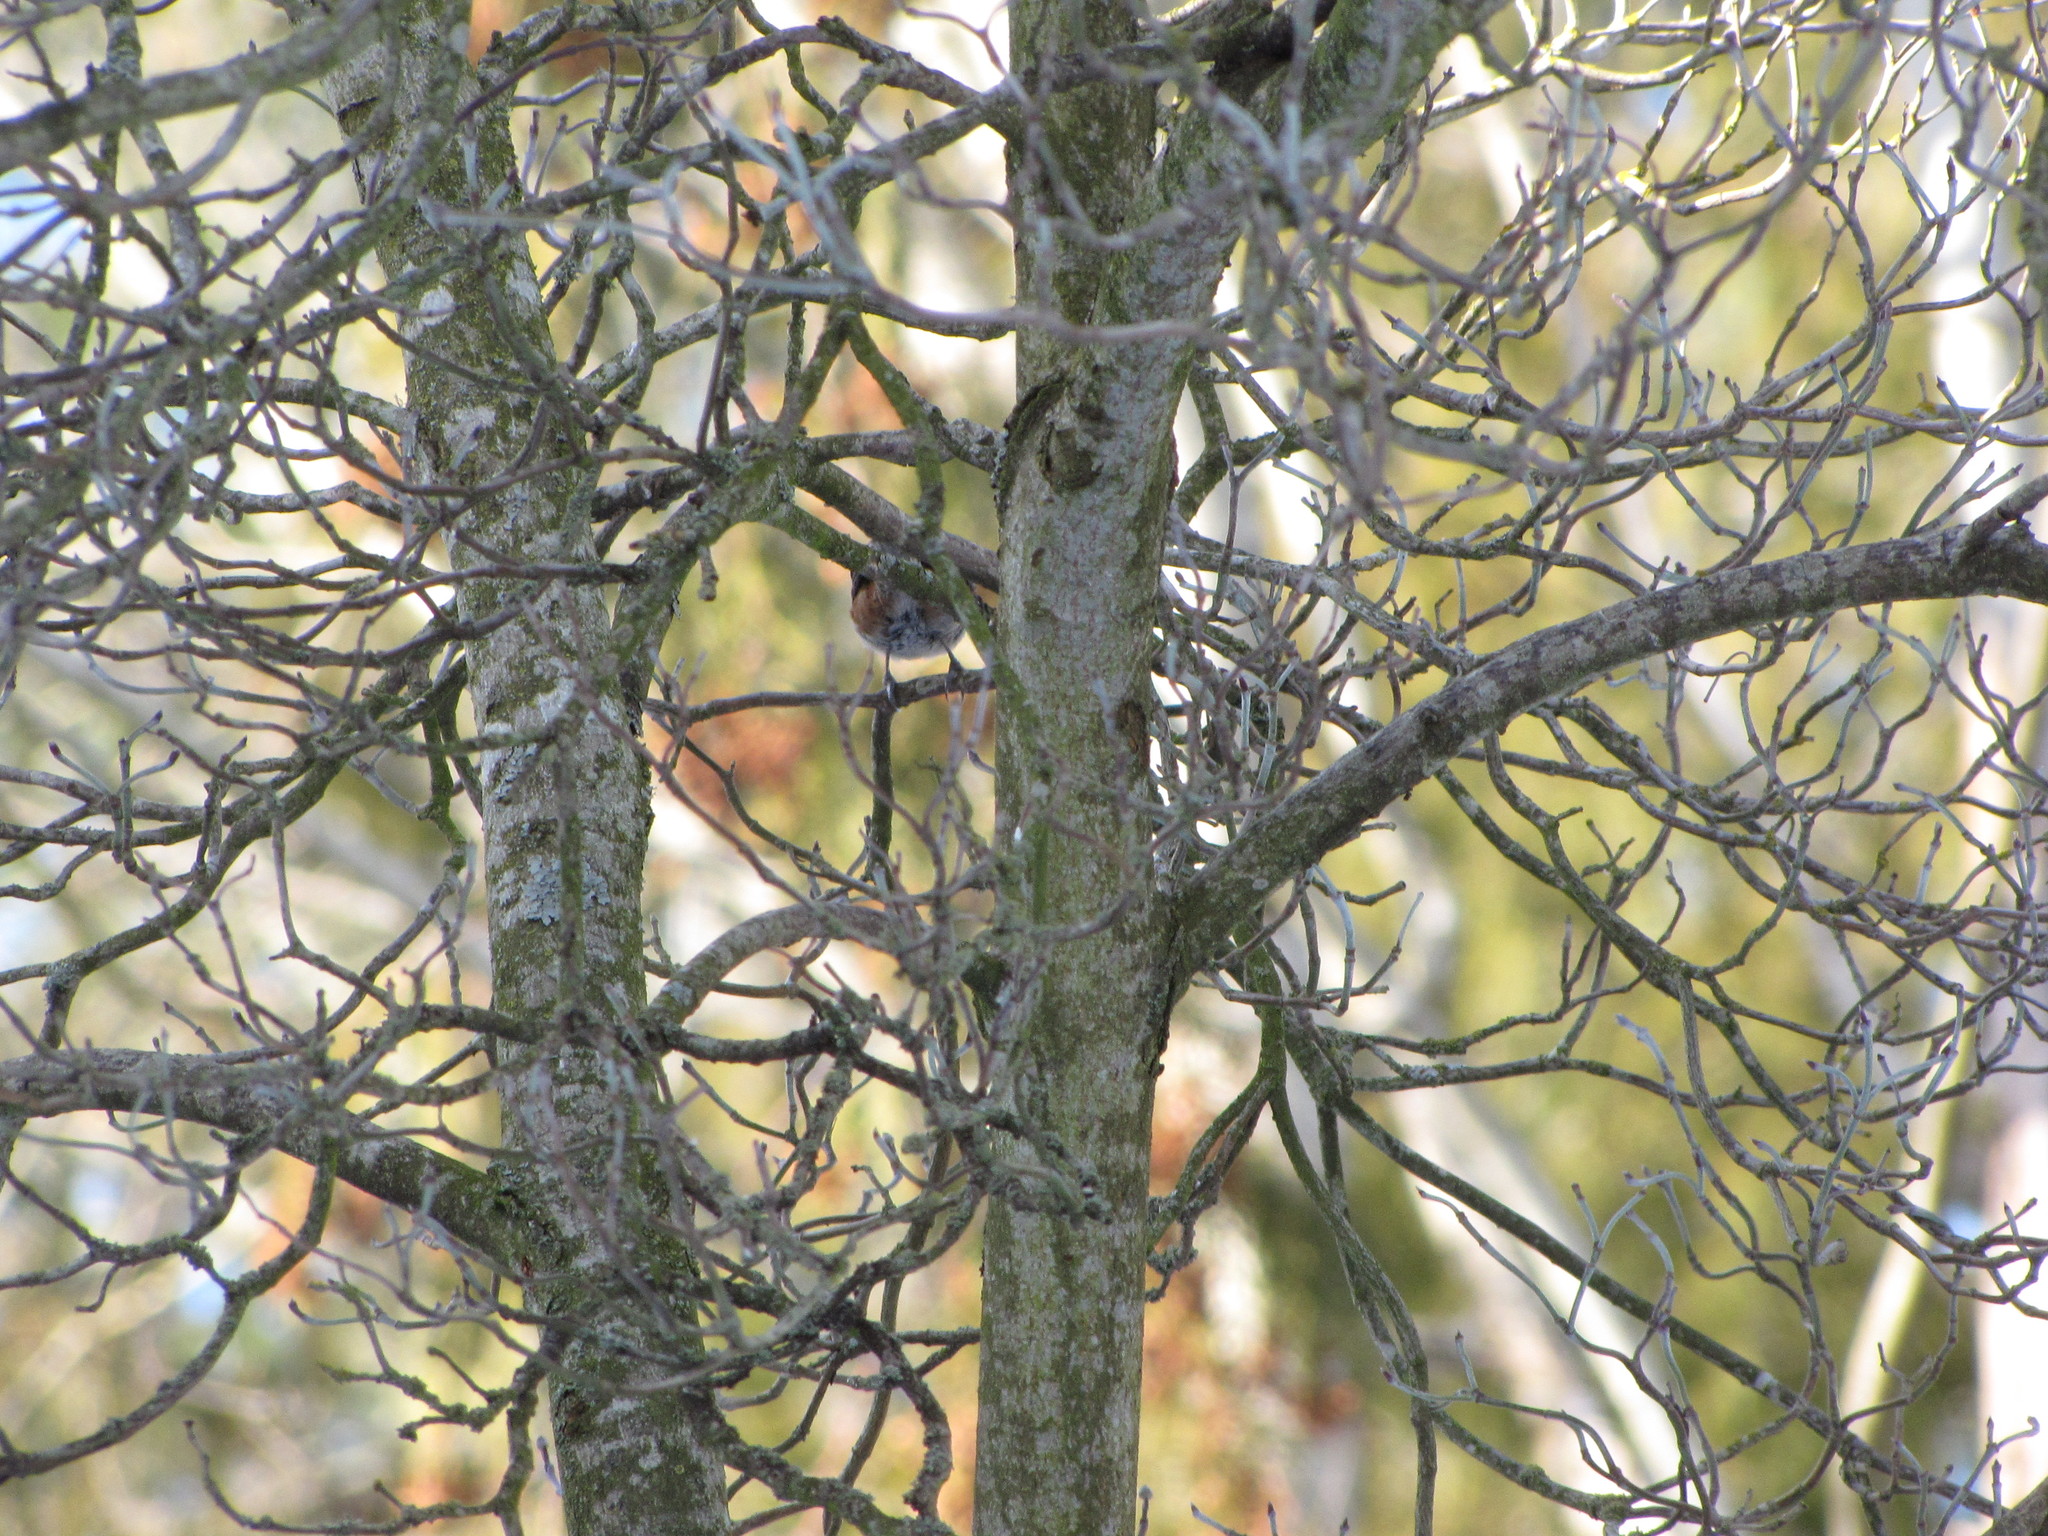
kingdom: Animalia
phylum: Chordata
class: Aves
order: Passeriformes
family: Paridae
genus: Poecile
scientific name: Poecile rufescens
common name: Chestnut-backed chickadee
